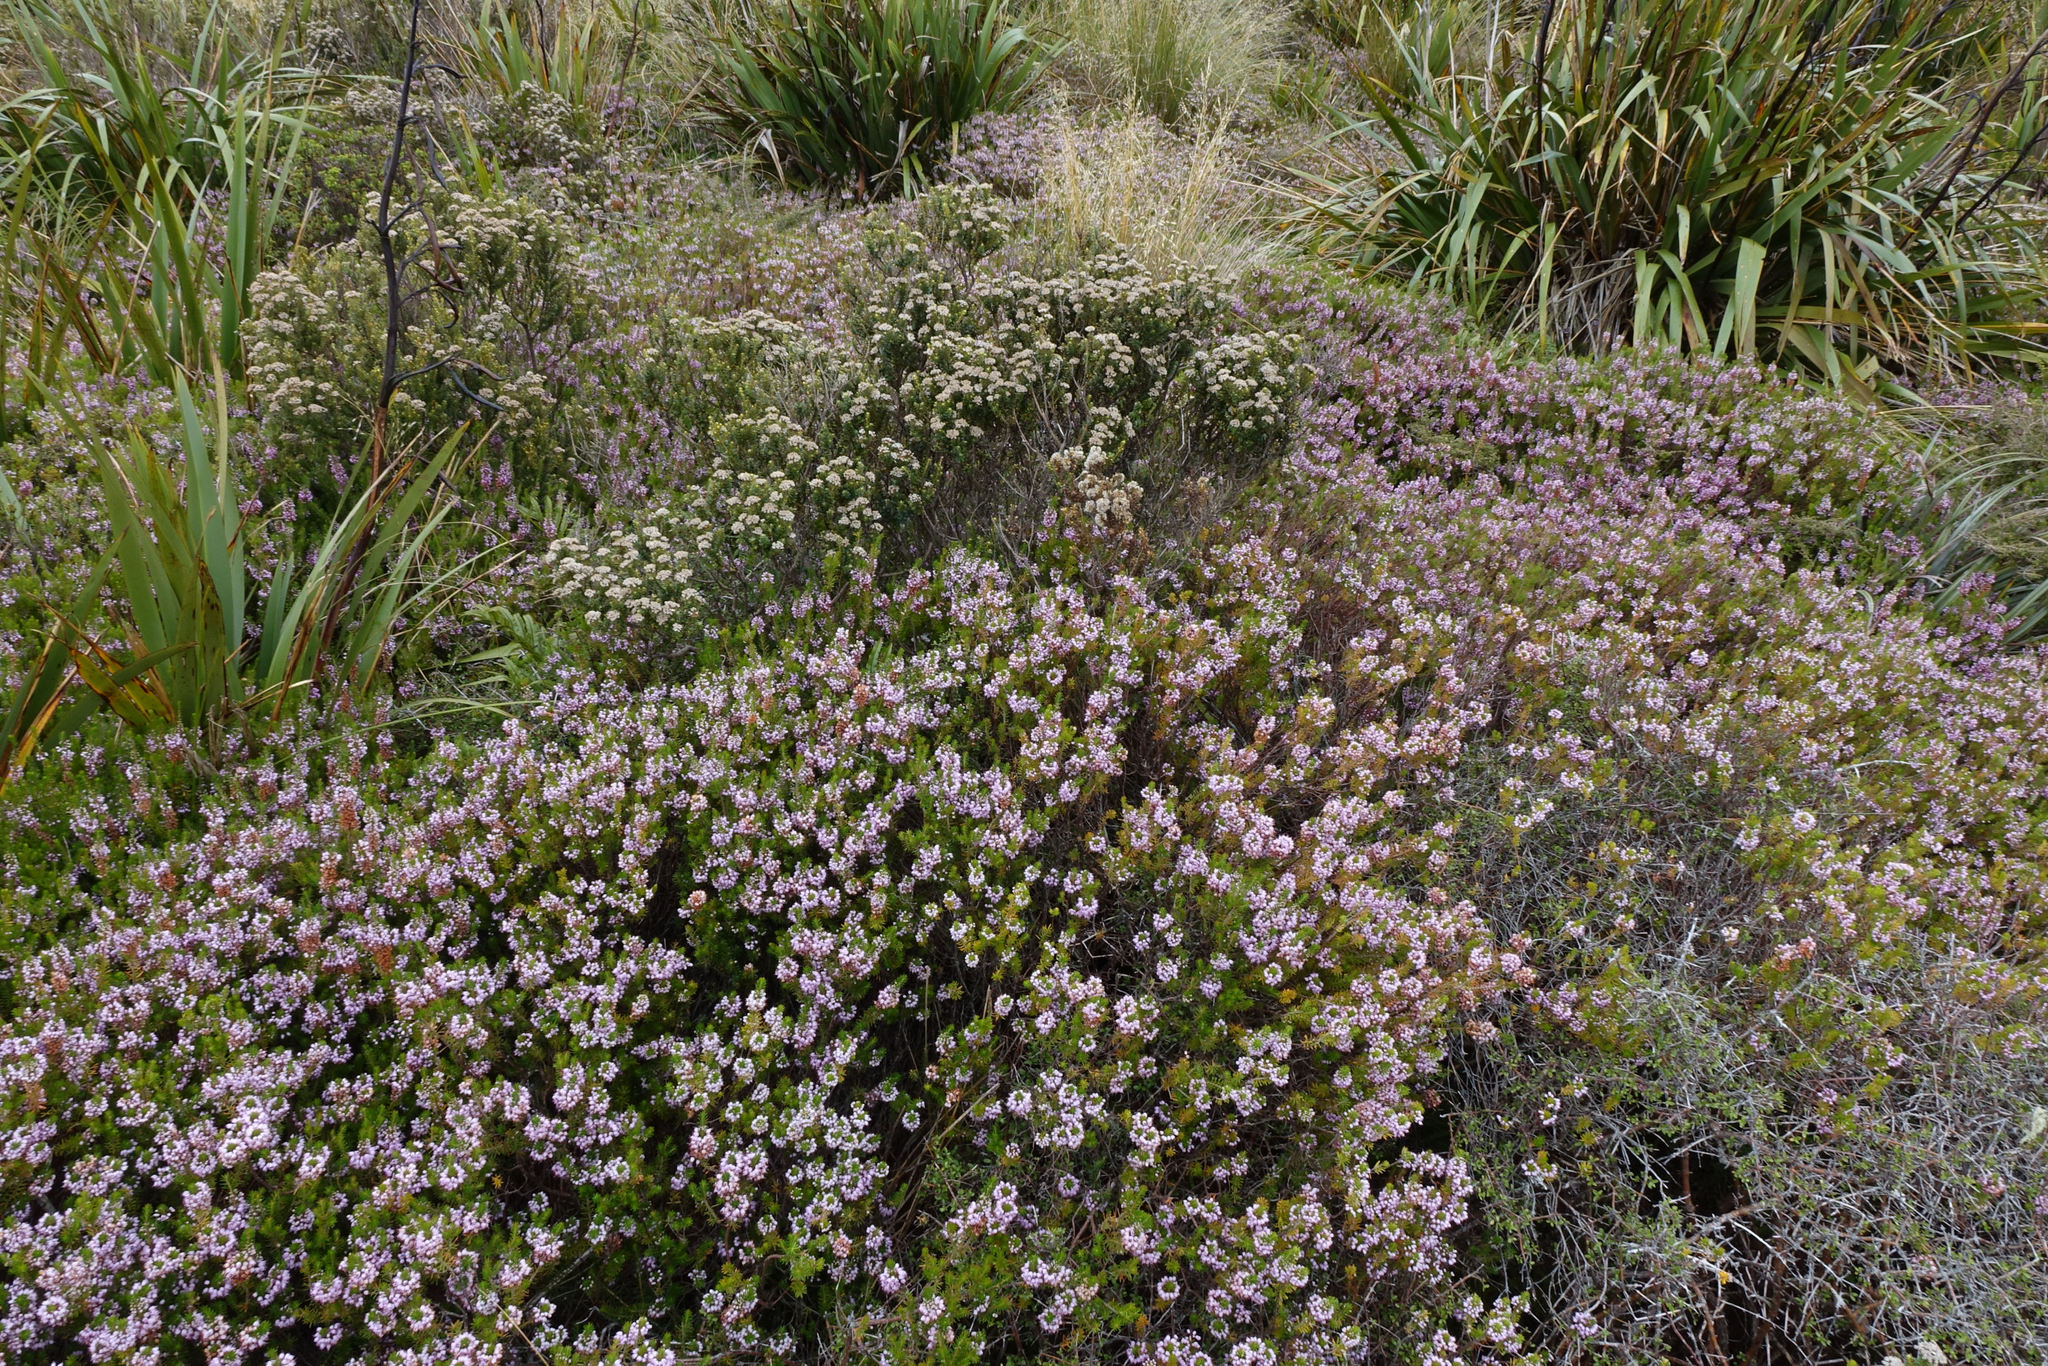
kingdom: Plantae
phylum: Tracheophyta
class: Magnoliopsida
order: Ericales
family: Ericaceae
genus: Erica
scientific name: Erica vagans
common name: Cornish heath
